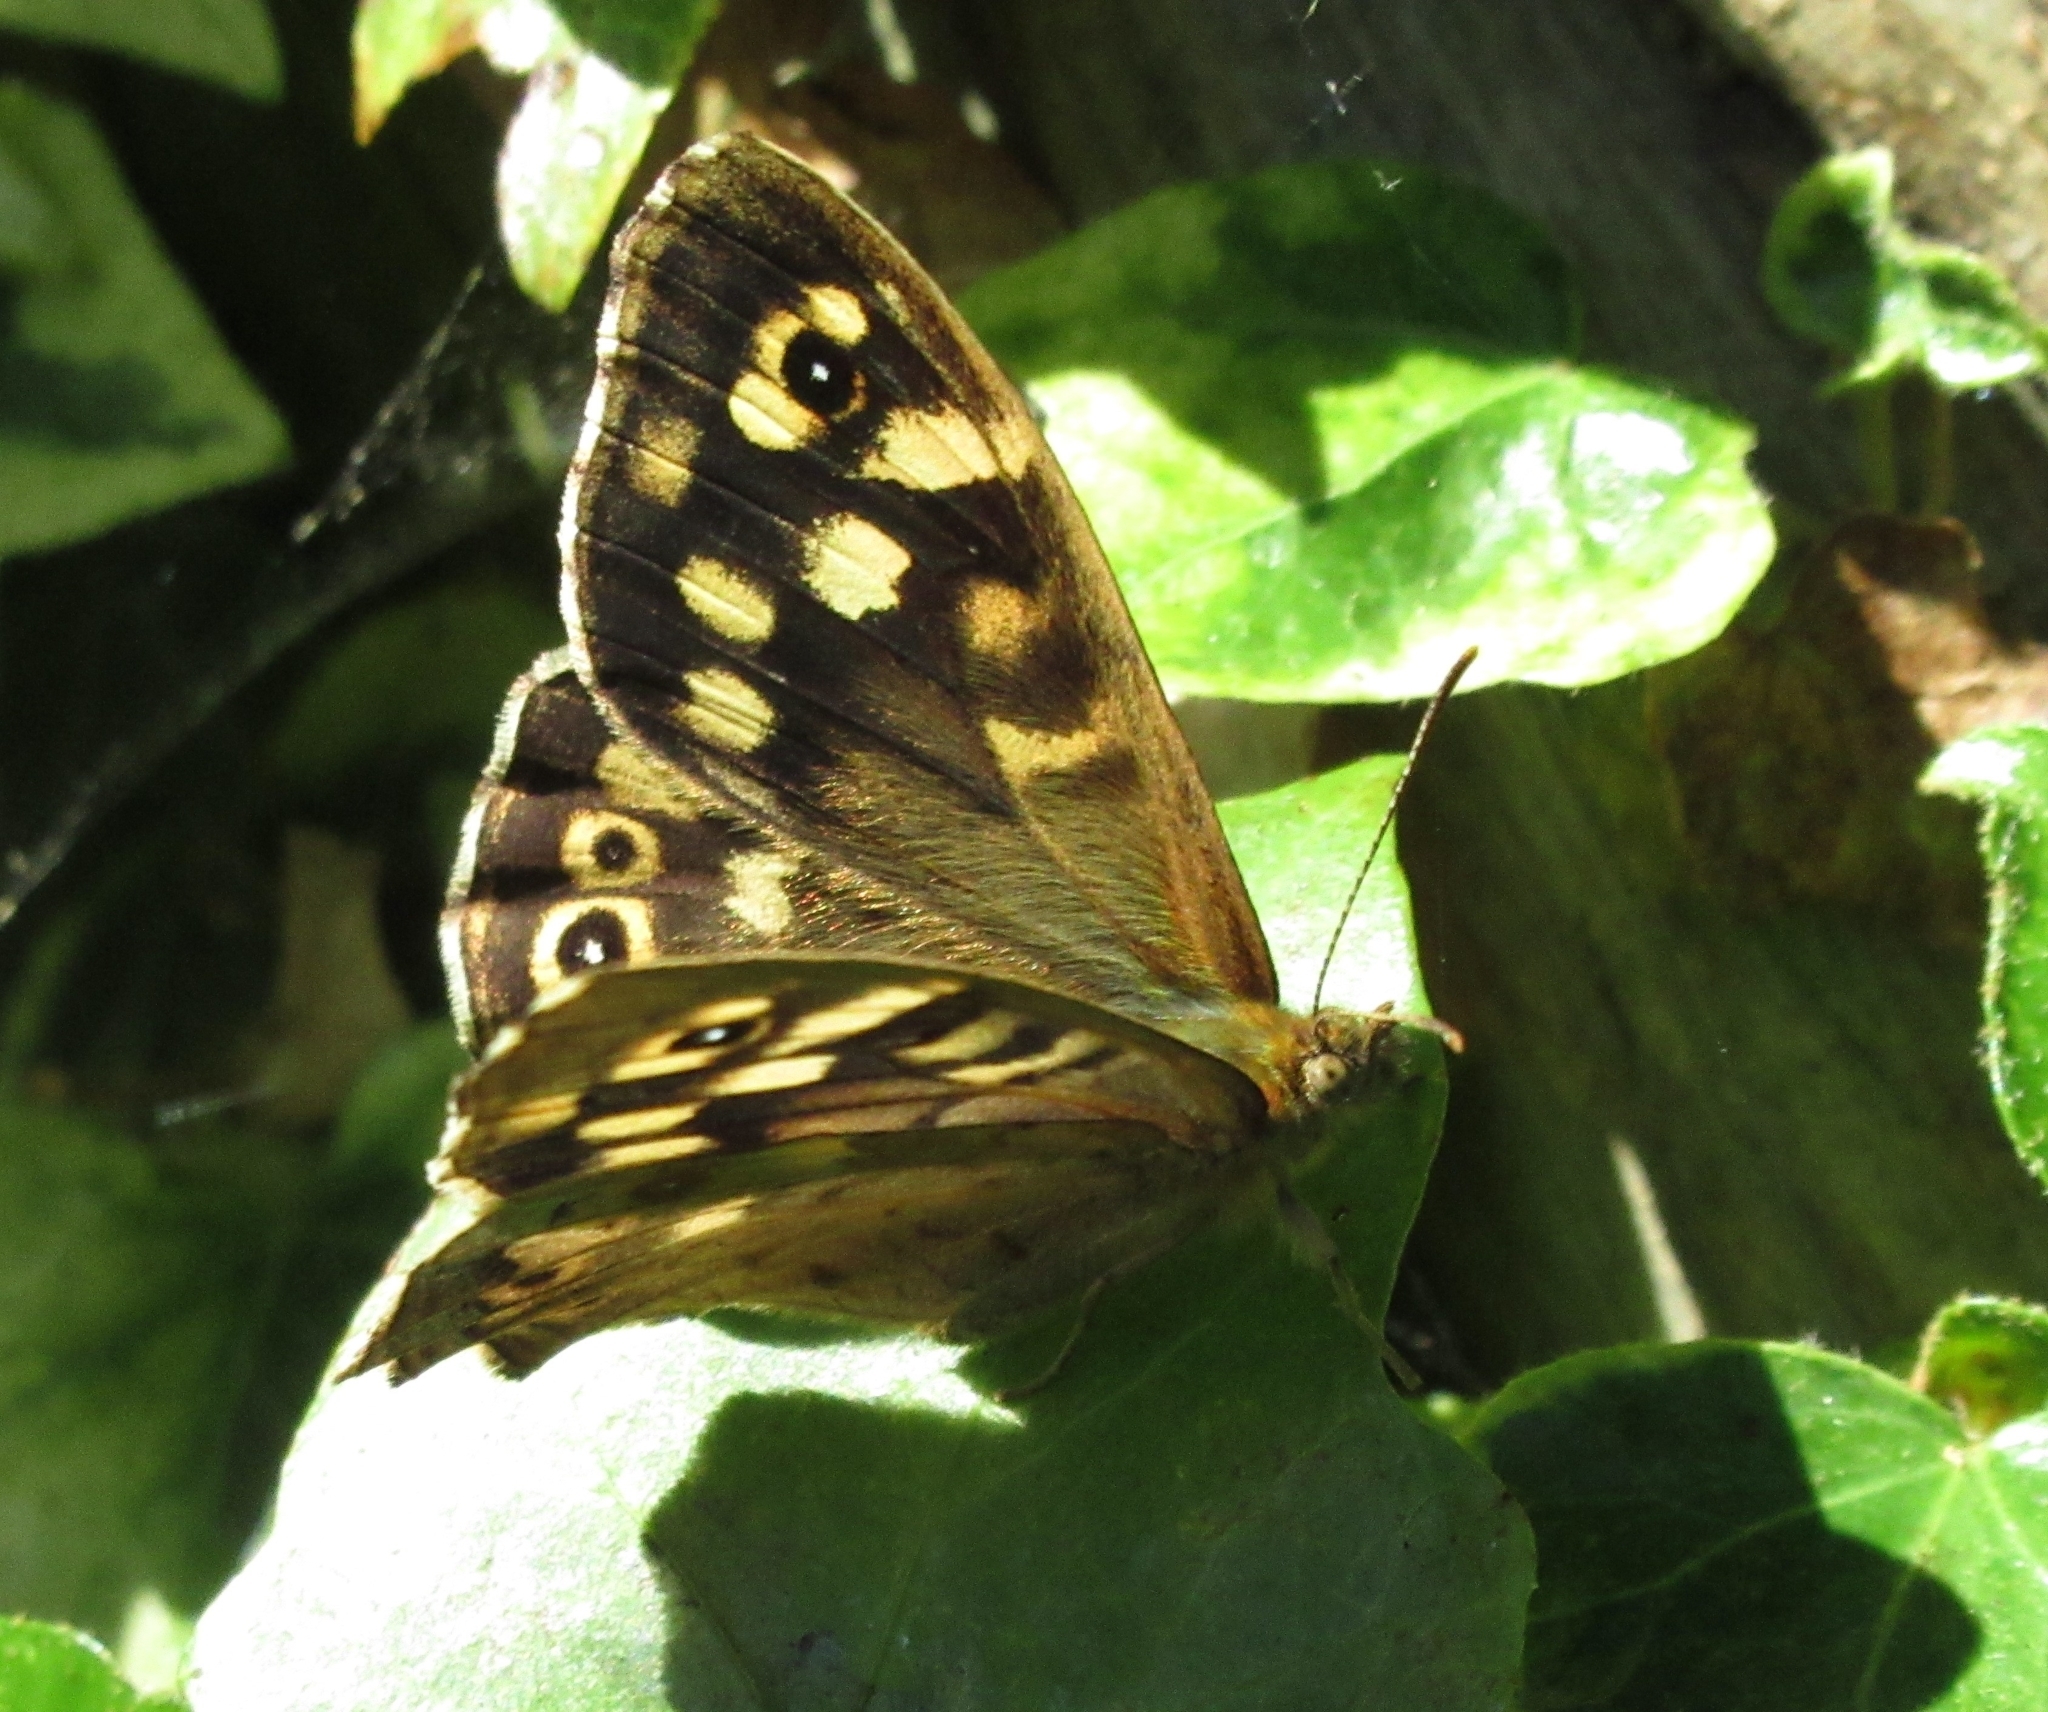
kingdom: Animalia
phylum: Arthropoda
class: Insecta
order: Lepidoptera
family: Nymphalidae
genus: Pararge
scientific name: Pararge aegeria
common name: Speckled wood
